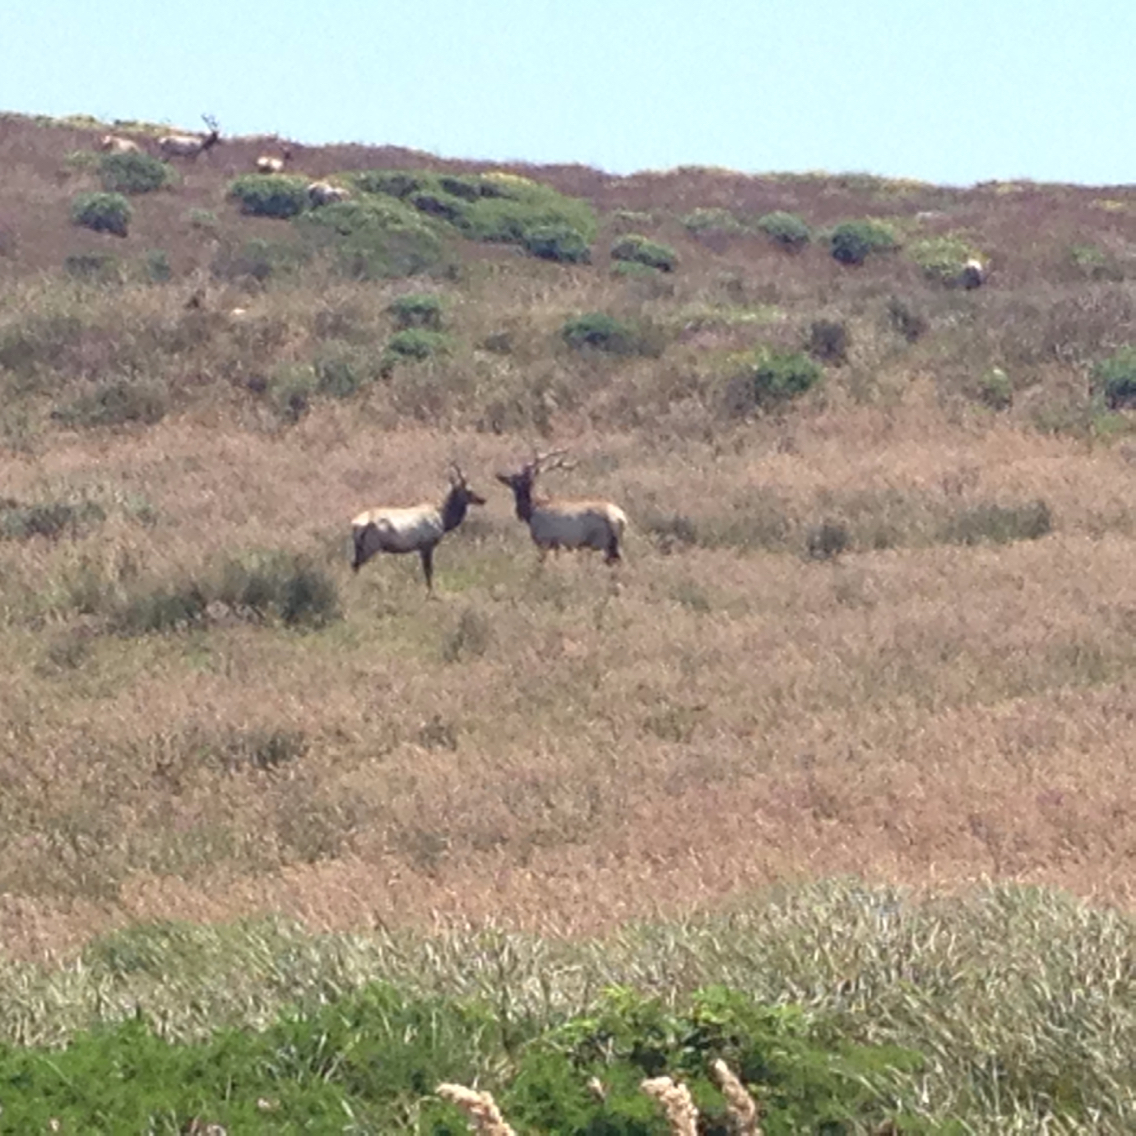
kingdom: Animalia
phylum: Chordata
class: Mammalia
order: Artiodactyla
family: Cervidae
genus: Cervus
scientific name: Cervus elaphus
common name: Red deer
